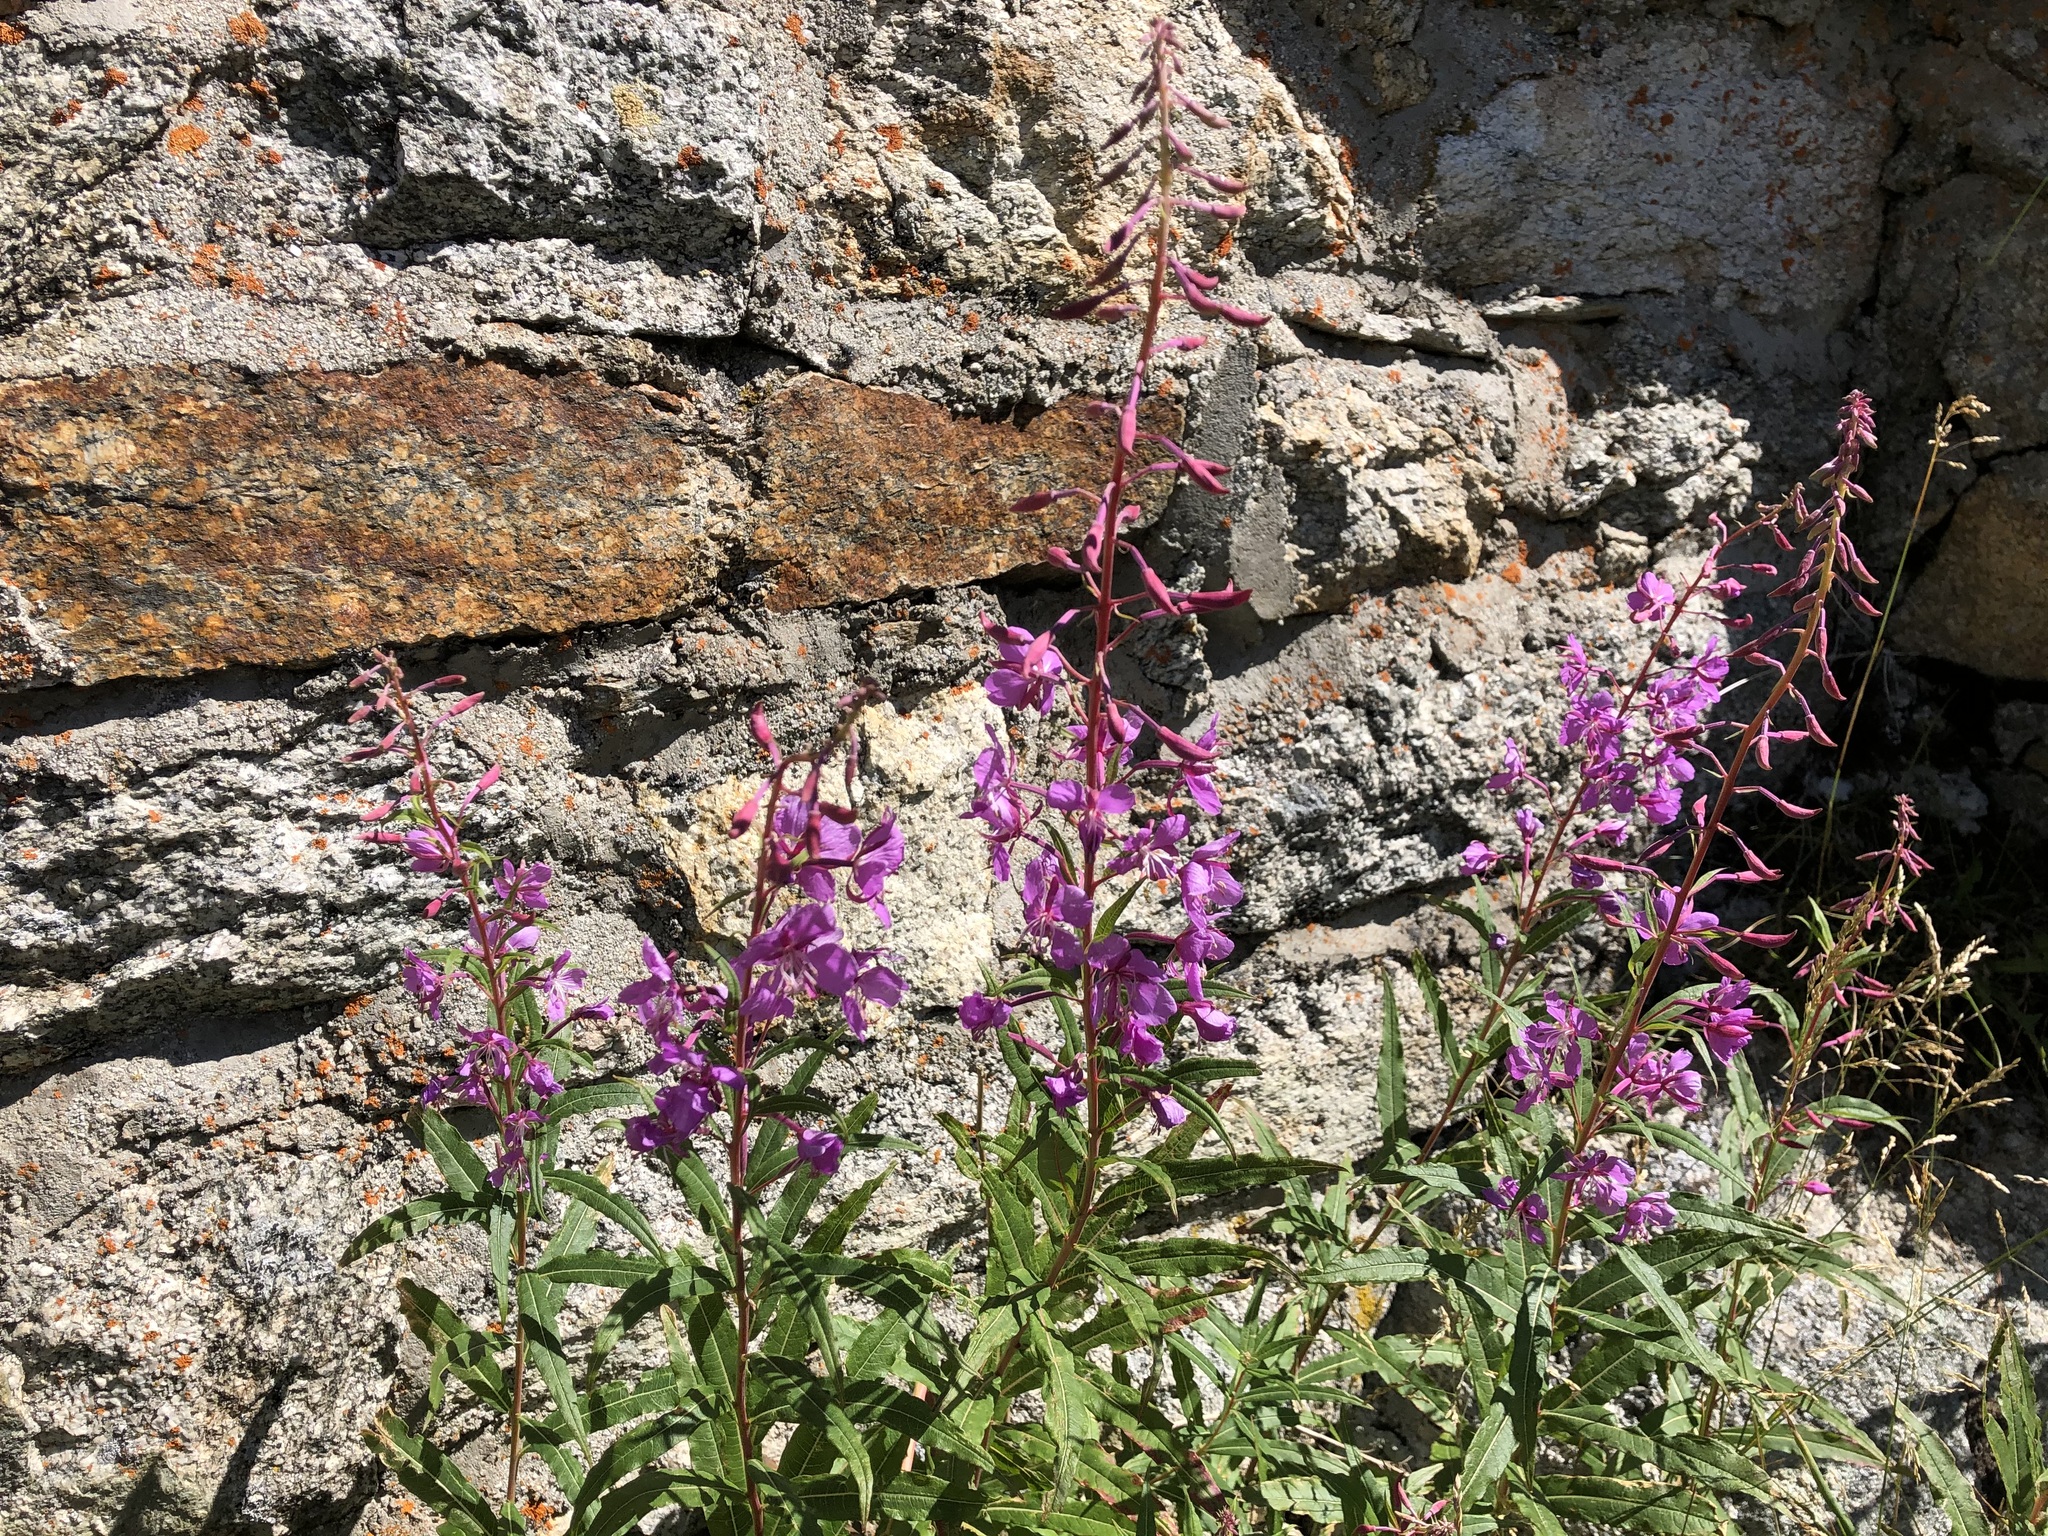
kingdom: Plantae
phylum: Tracheophyta
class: Magnoliopsida
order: Myrtales
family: Onagraceae
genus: Chamaenerion
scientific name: Chamaenerion angustifolium
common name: Fireweed
